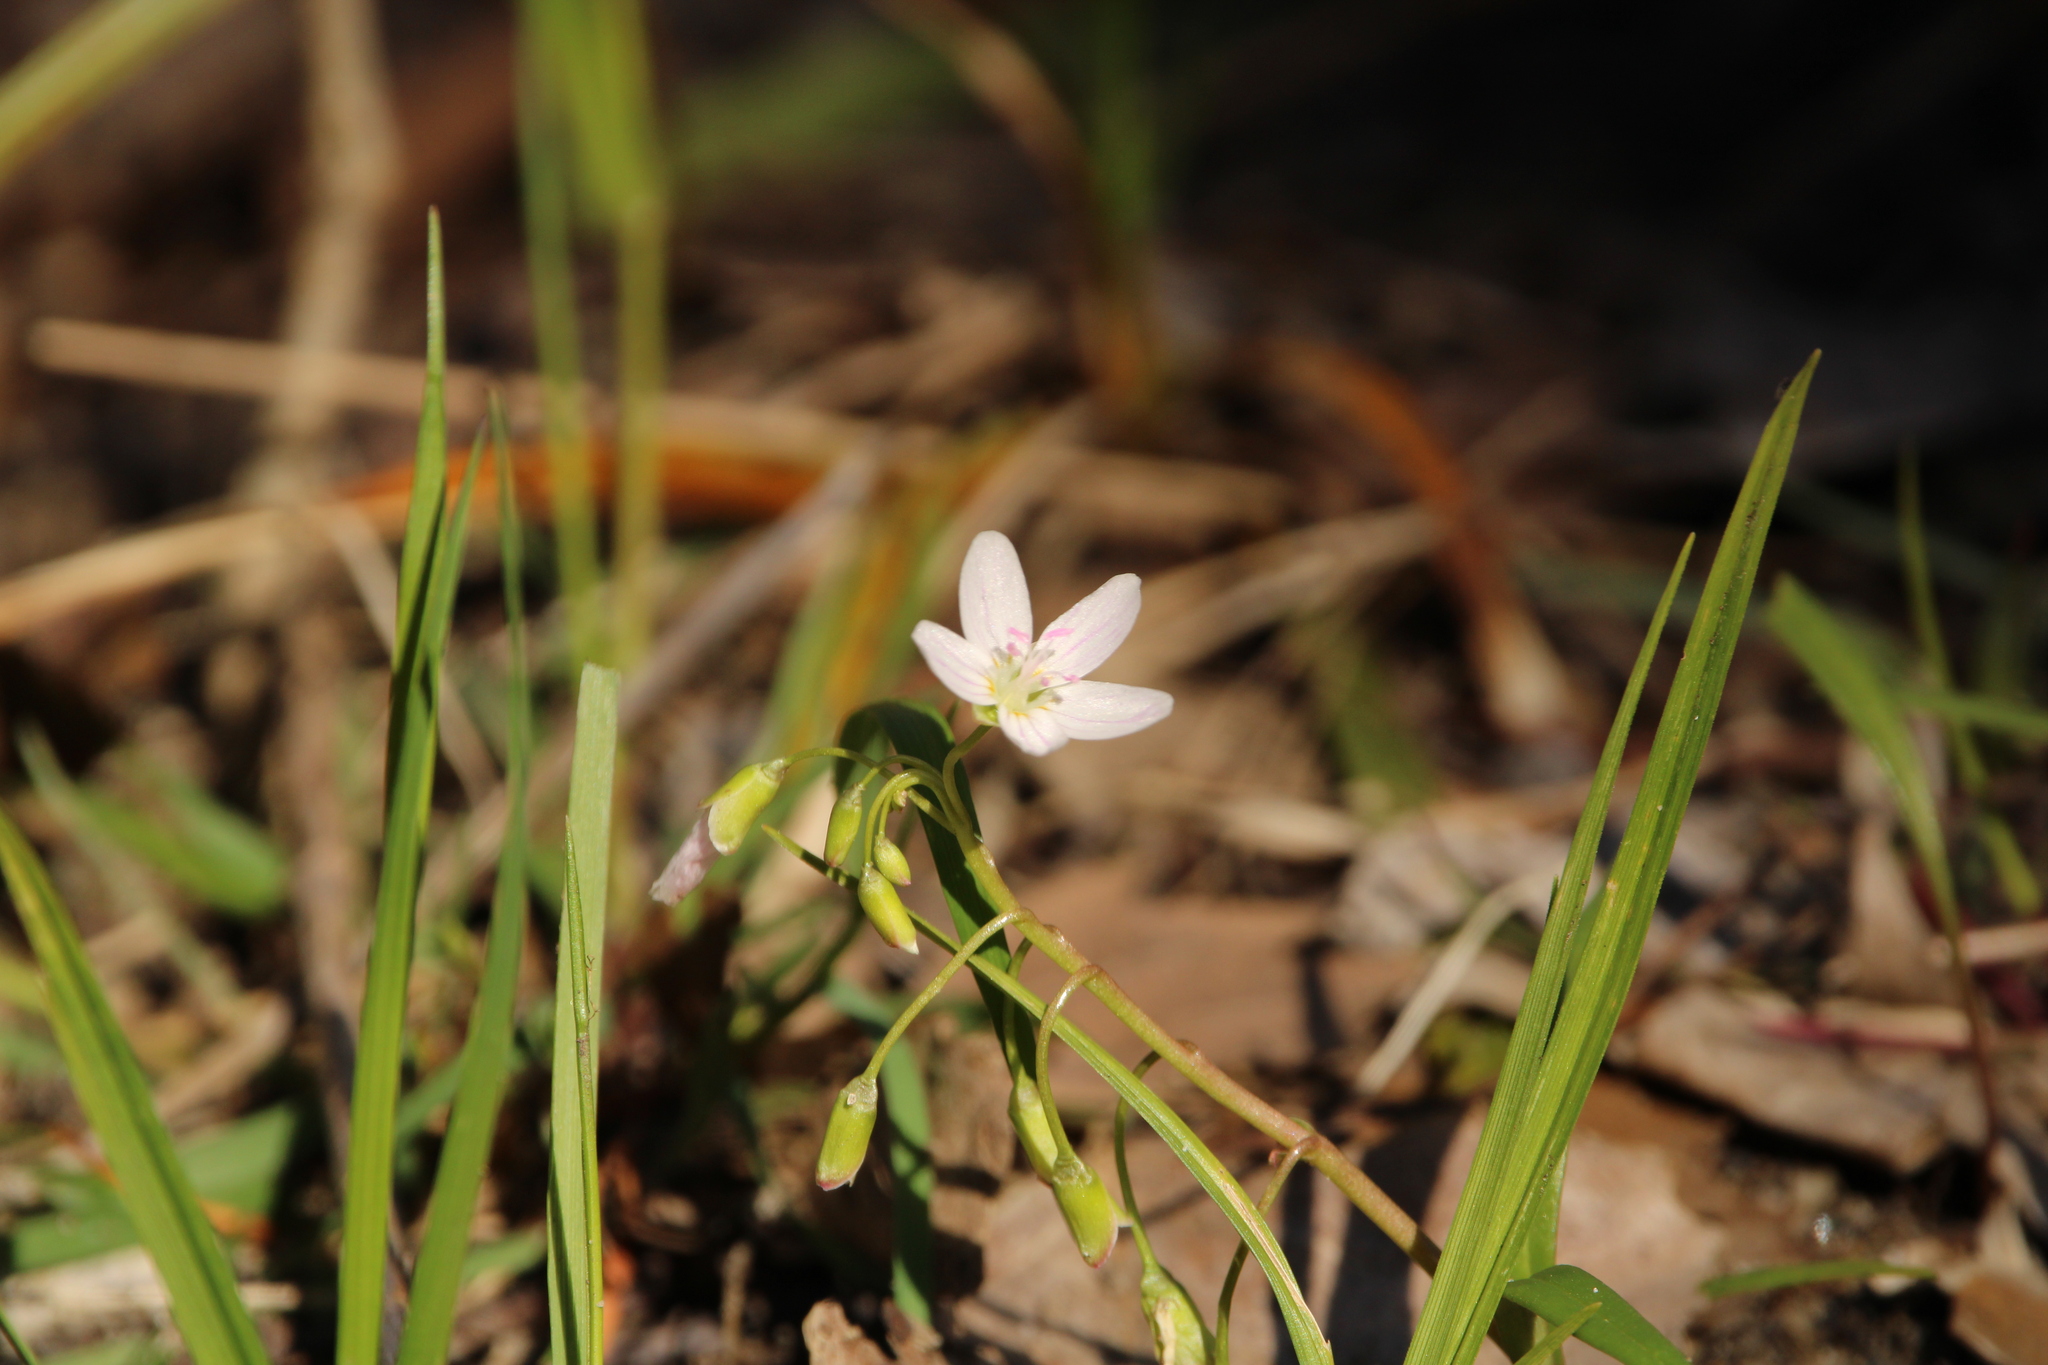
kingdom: Plantae
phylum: Tracheophyta
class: Magnoliopsida
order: Caryophyllales
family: Montiaceae
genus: Claytonia
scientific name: Claytonia virginica
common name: Virginia springbeauty
